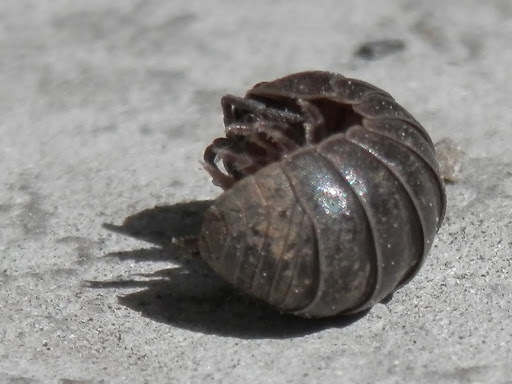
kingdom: Animalia
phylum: Arthropoda
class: Malacostraca
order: Isopoda
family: Armadillidiidae
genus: Armadillidium
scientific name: Armadillidium vulgare
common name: Common pill woodlouse
